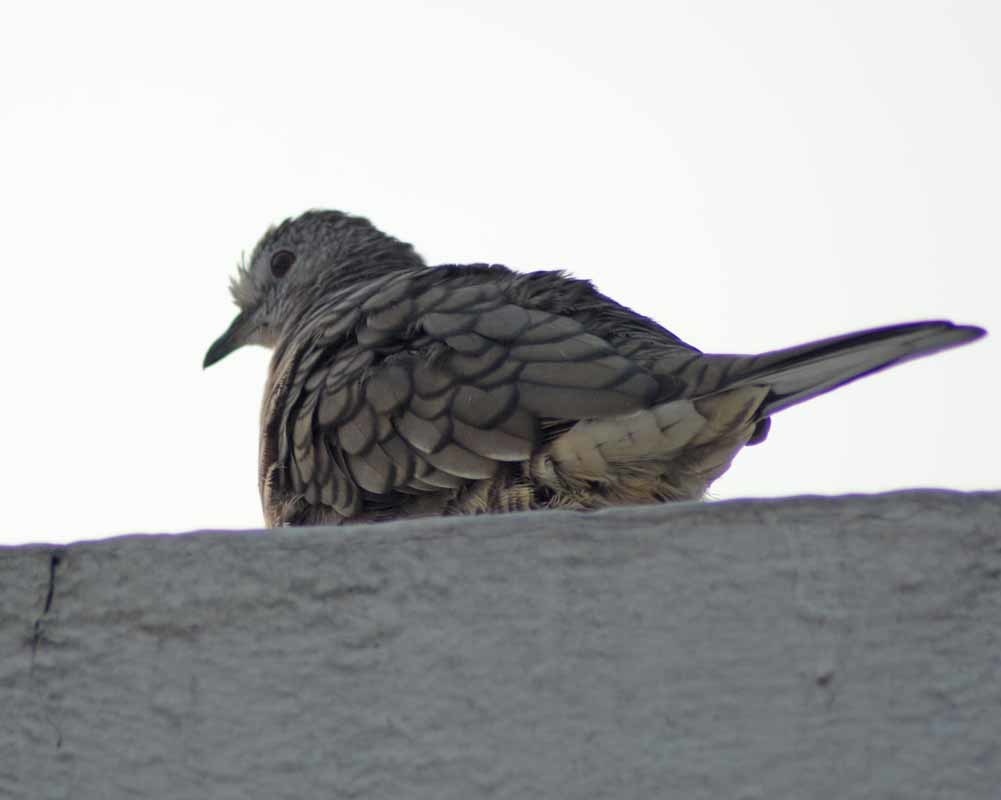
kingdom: Animalia
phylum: Chordata
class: Aves
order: Columbiformes
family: Columbidae
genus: Columbina
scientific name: Columbina inca
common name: Inca dove
